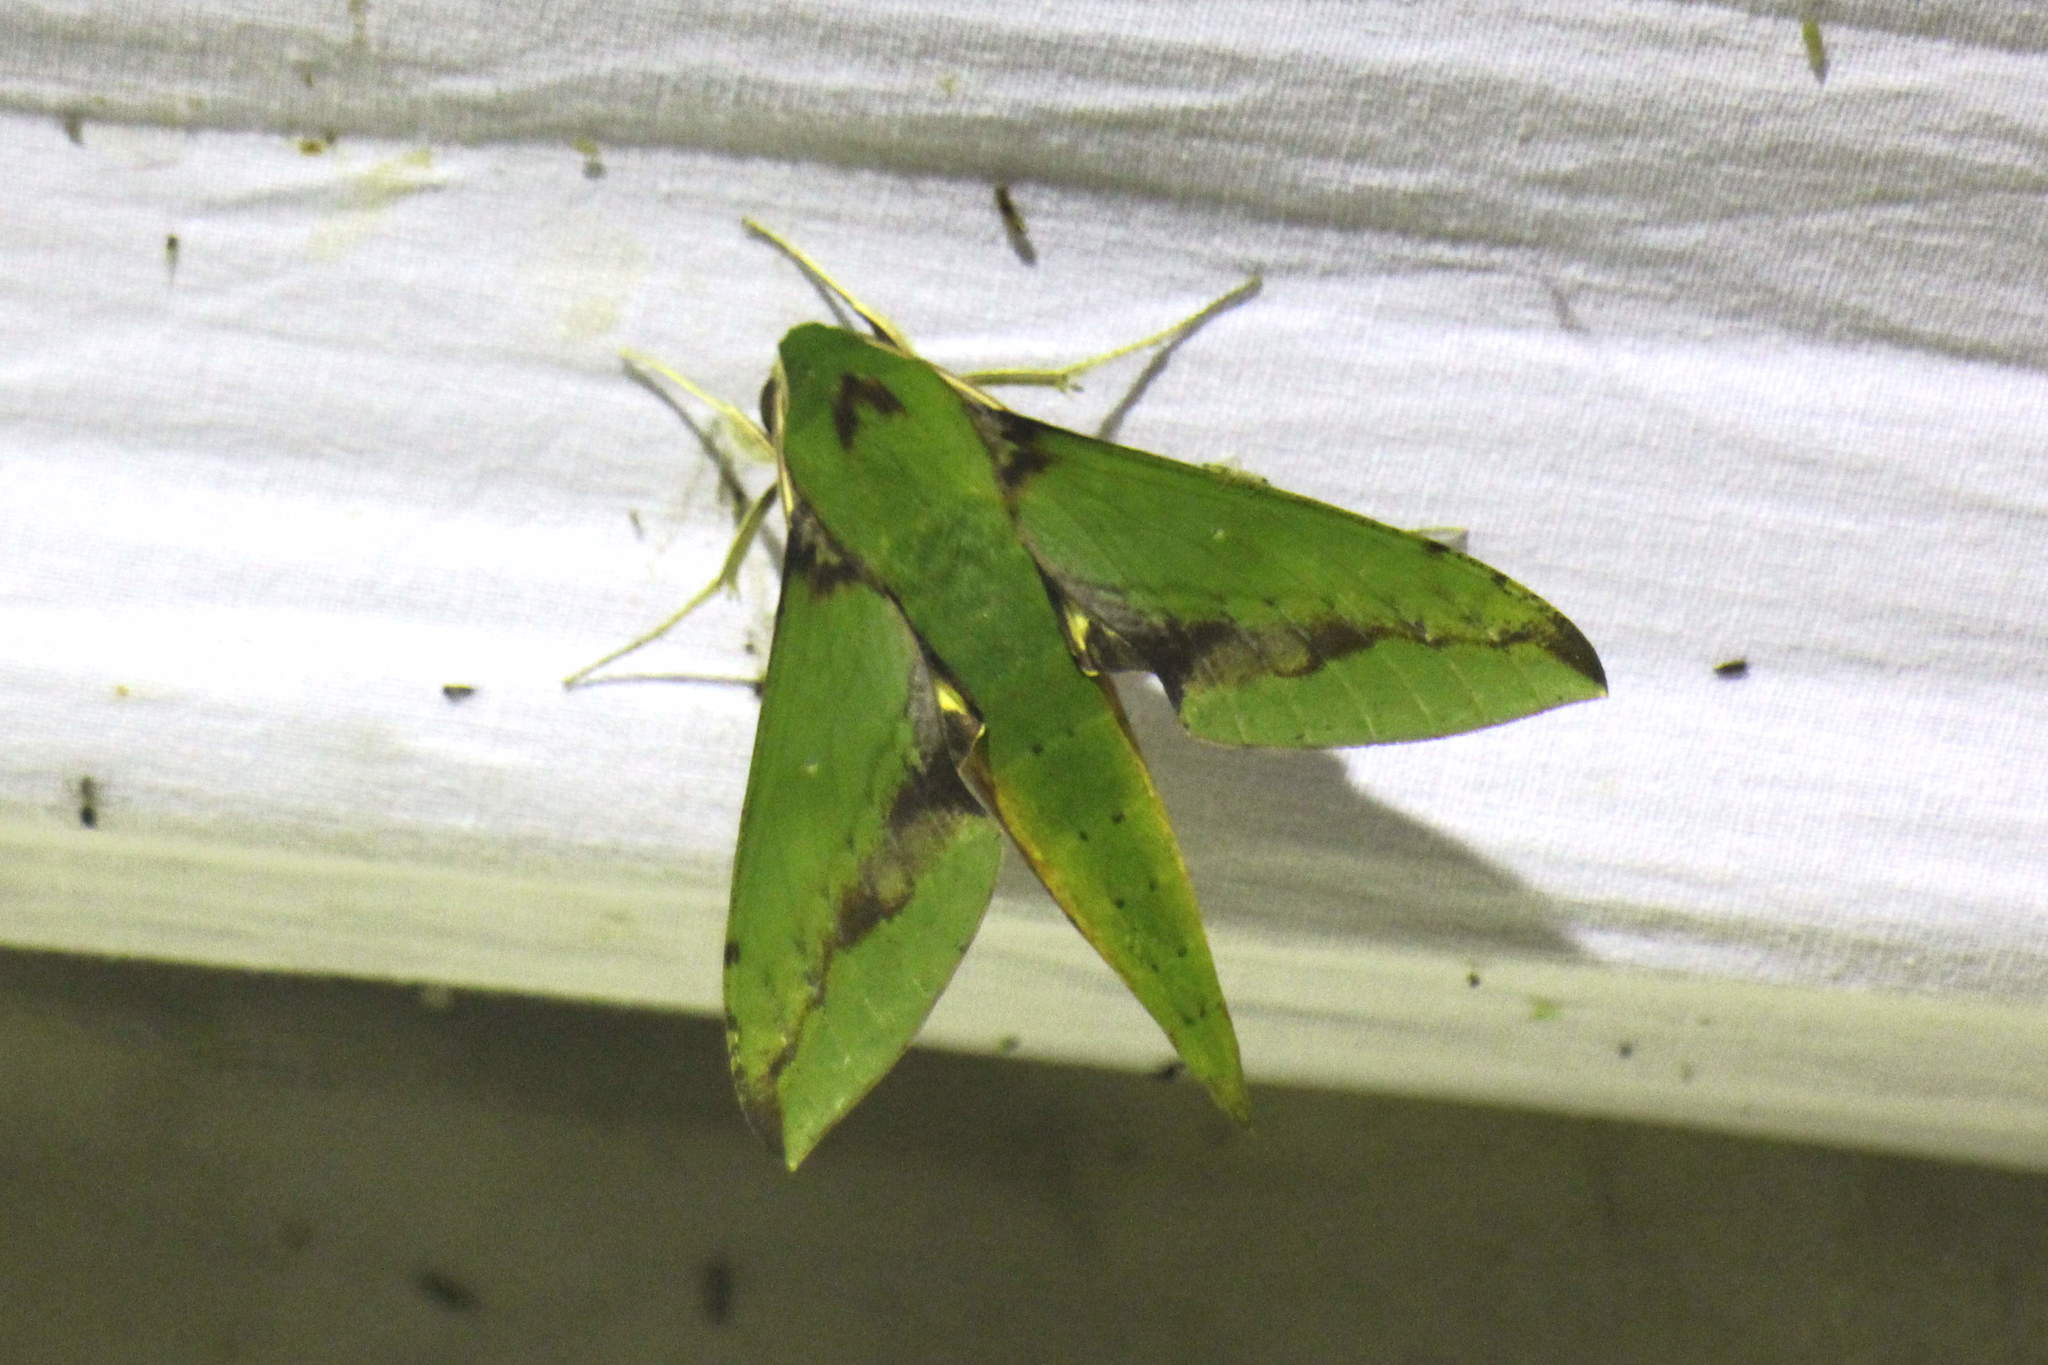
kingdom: Animalia
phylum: Arthropoda
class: Insecta
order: Lepidoptera
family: Sphingidae
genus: Xylophanes
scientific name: Xylophanes chiron
